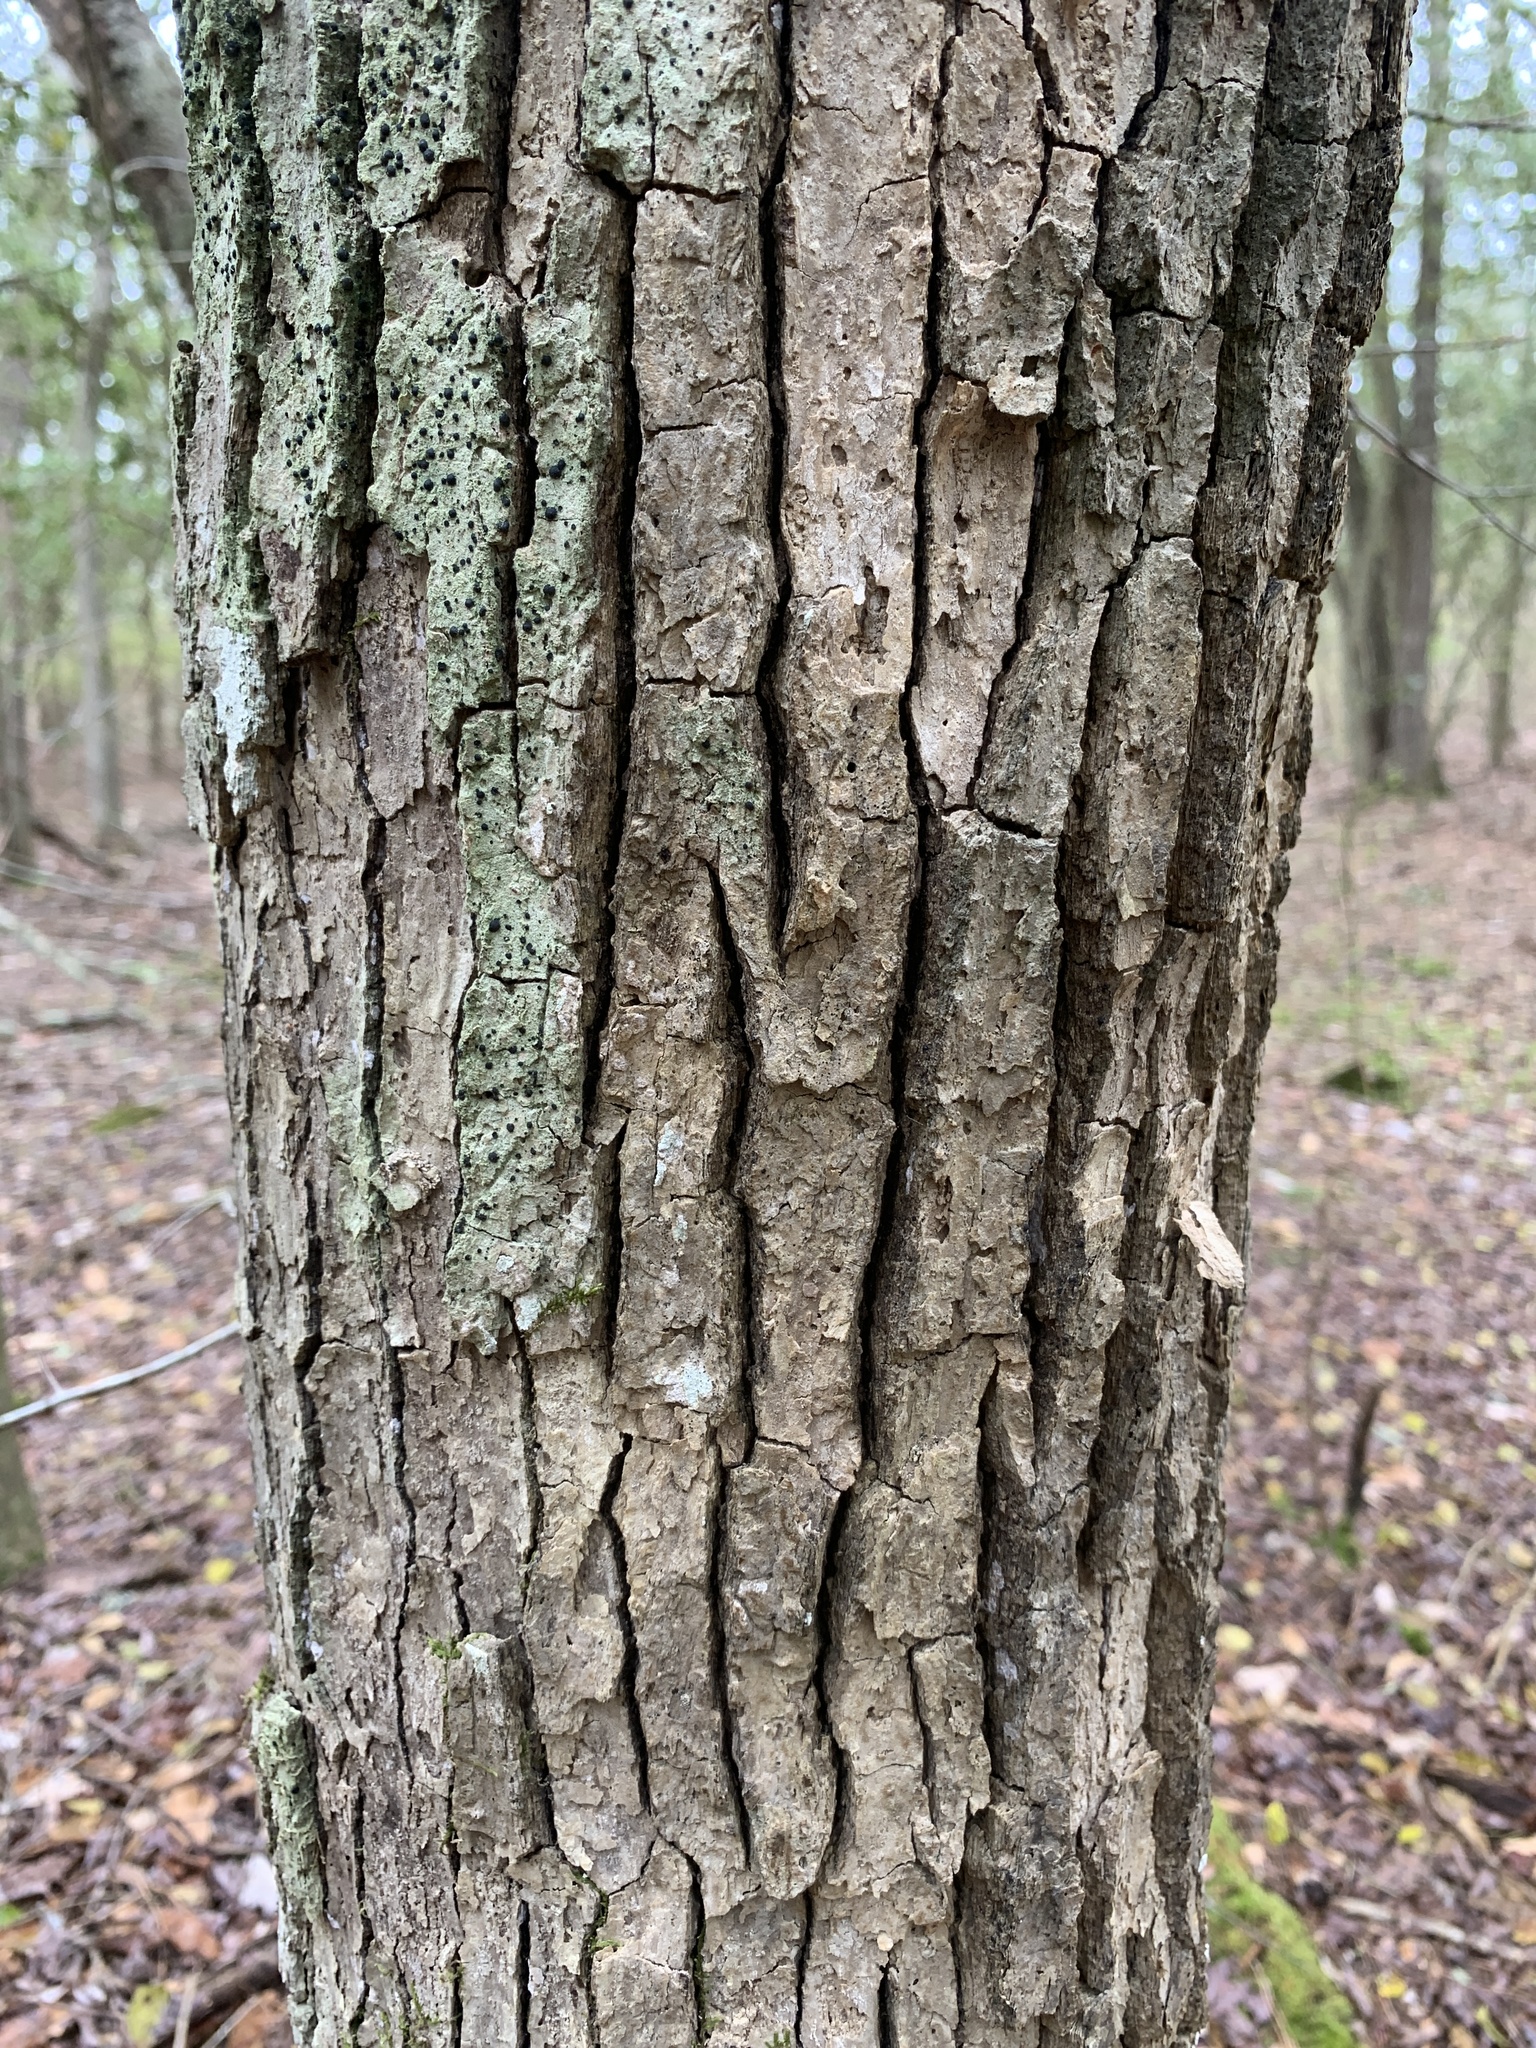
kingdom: Plantae
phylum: Tracheophyta
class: Magnoliopsida
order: Fagales
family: Fagaceae
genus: Fagus
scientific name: Fagus grandifolia
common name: American beech
